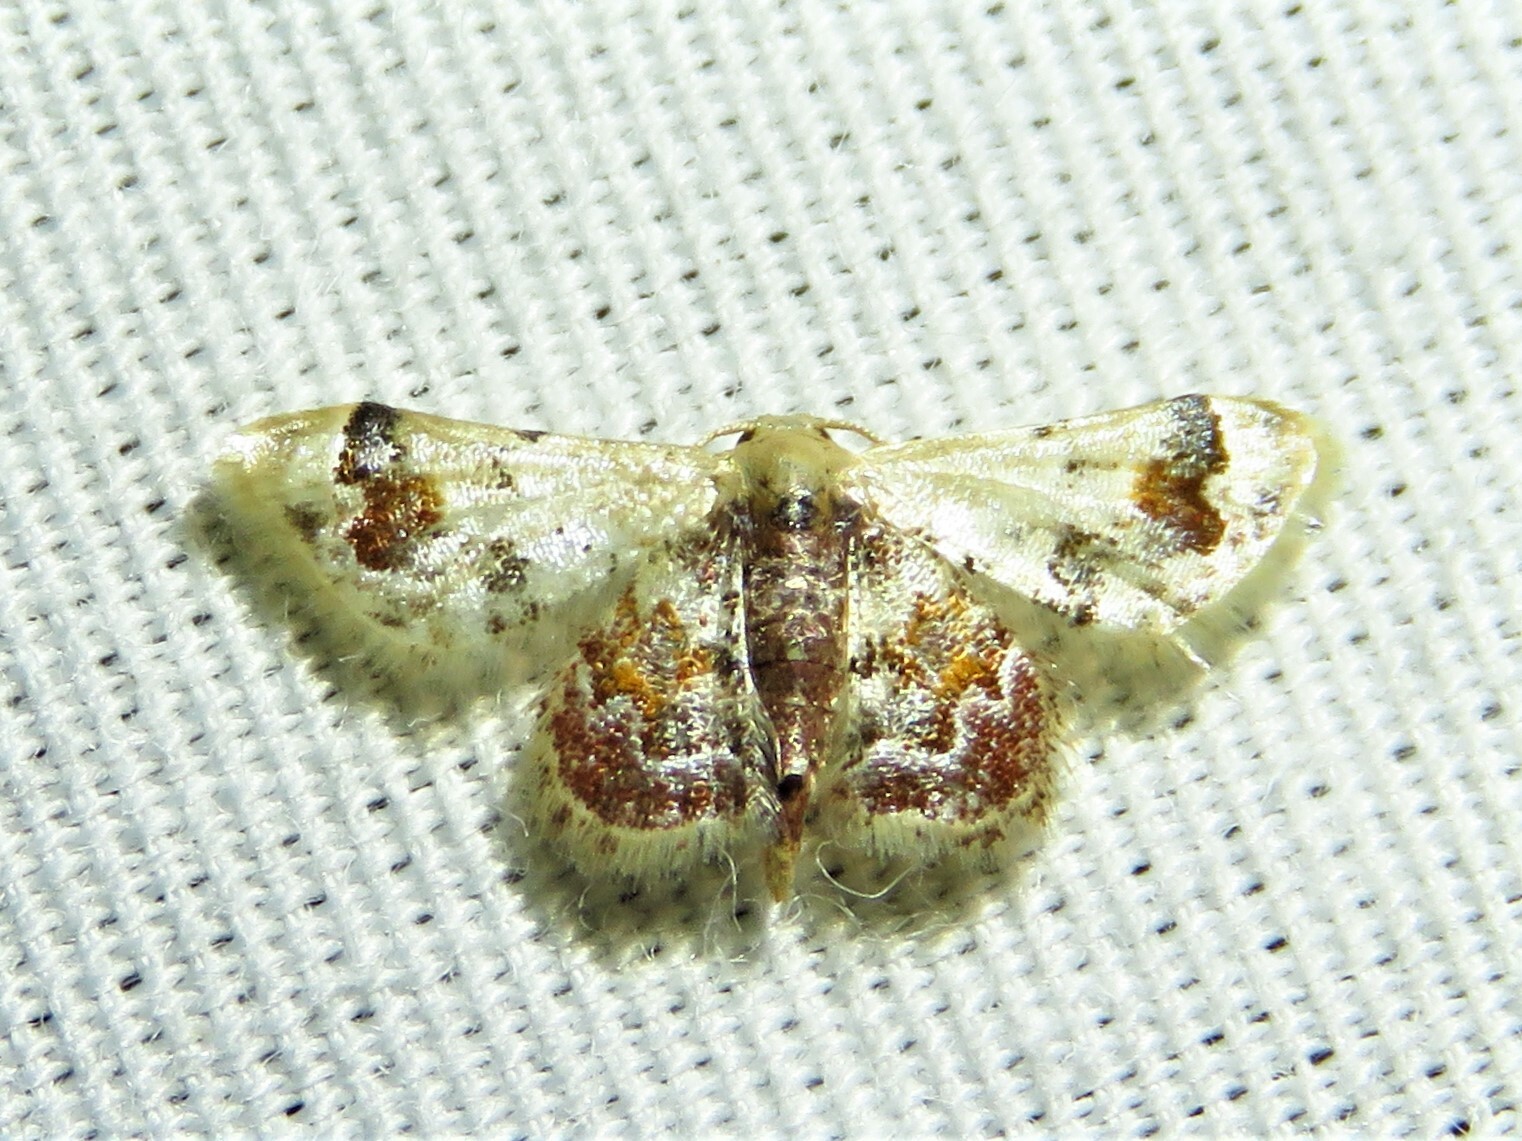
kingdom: Animalia
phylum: Arthropoda
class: Insecta
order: Lepidoptera
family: Geometridae
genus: Idaea
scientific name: Idaea asceta
